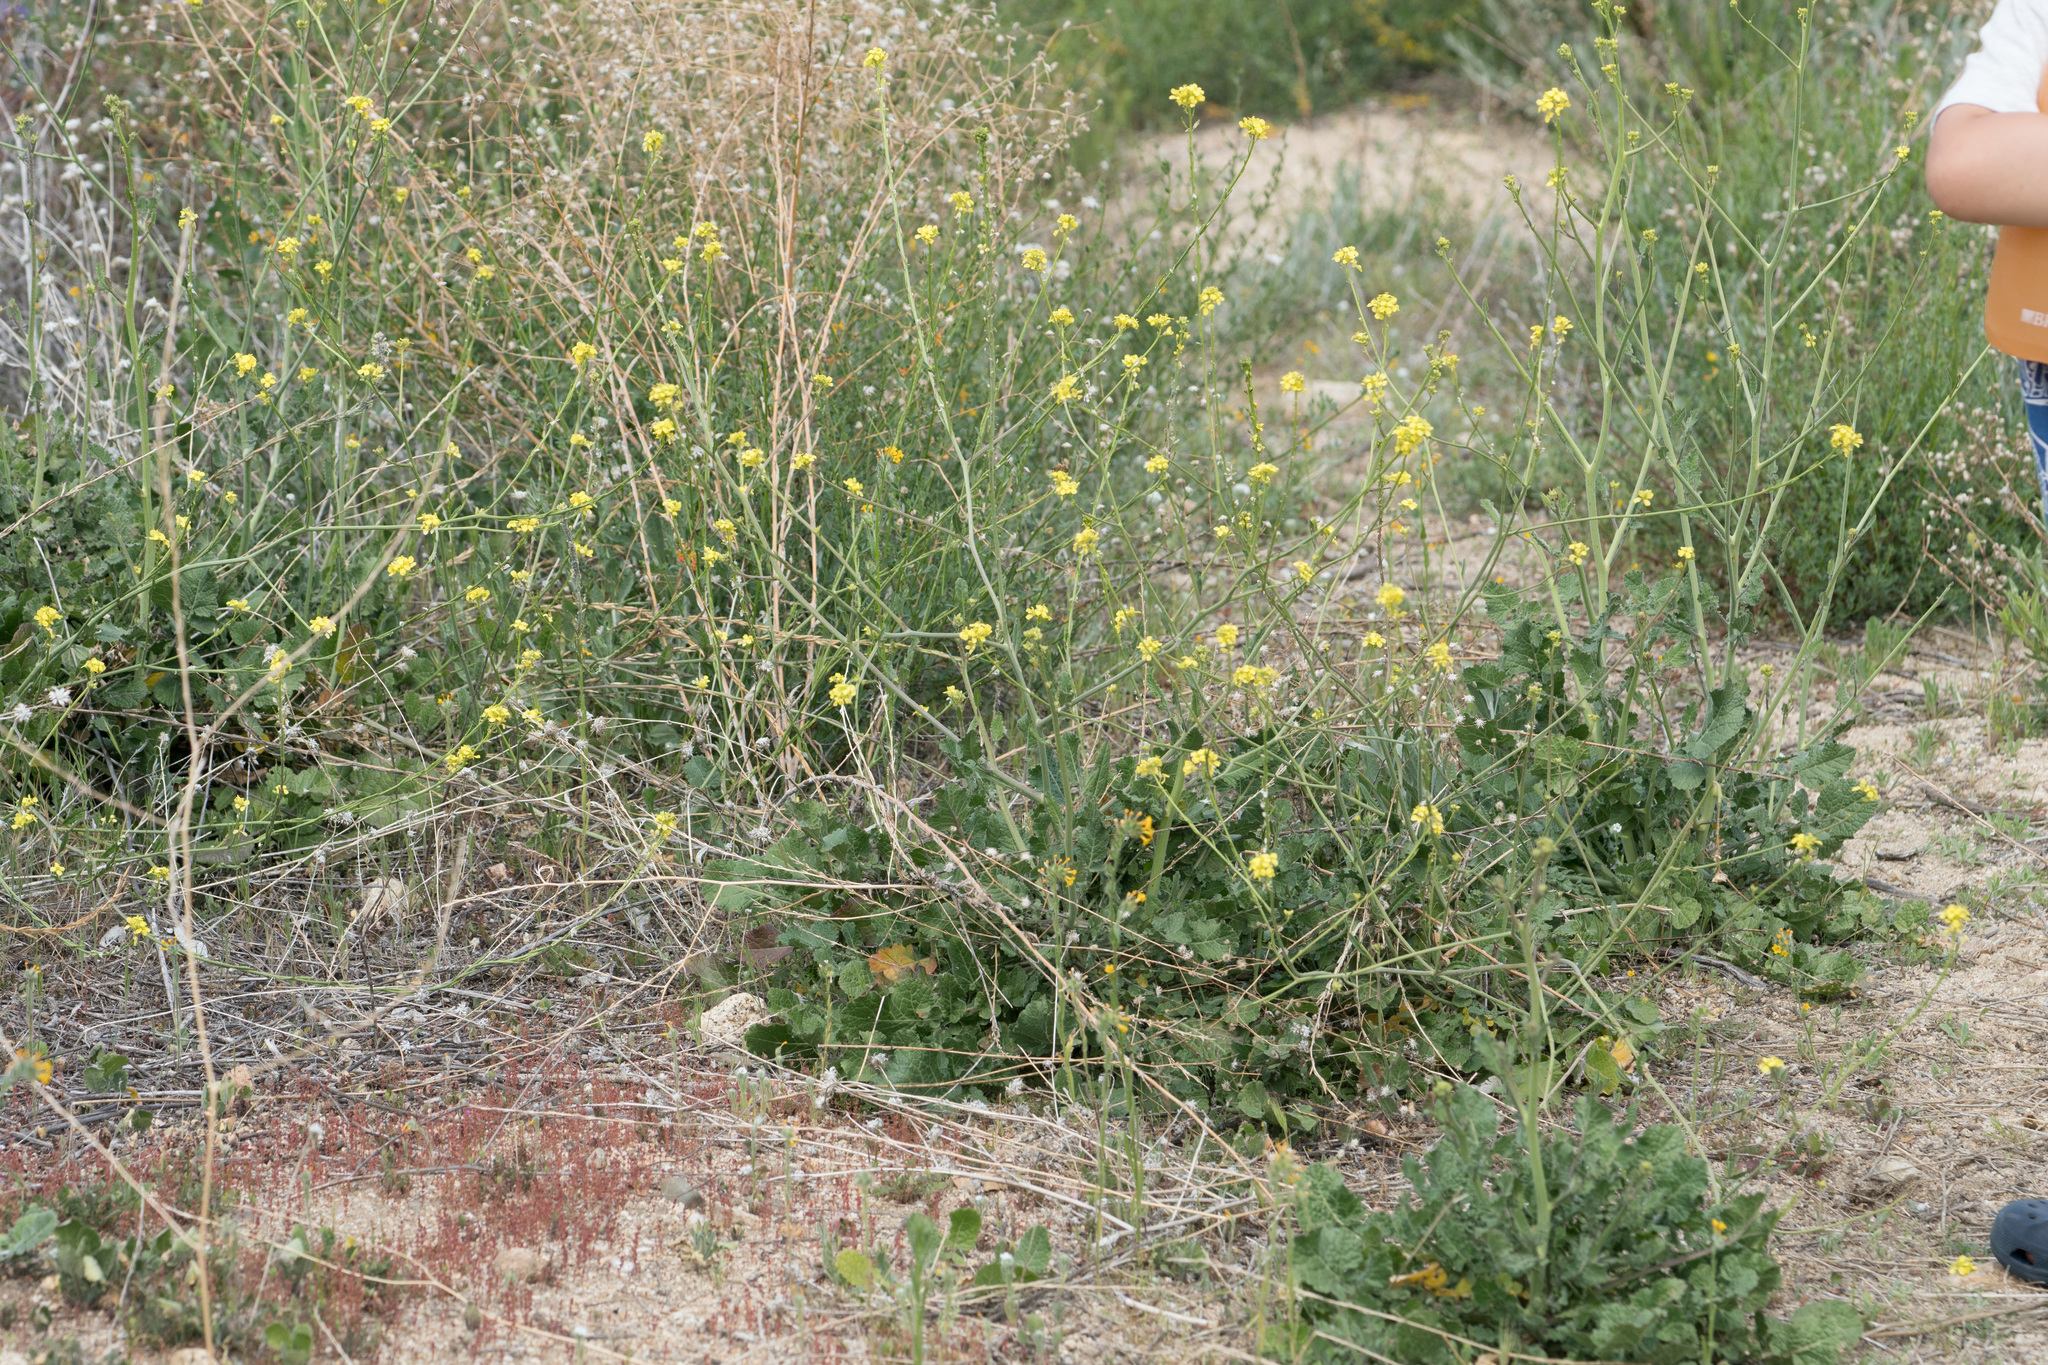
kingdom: Plantae
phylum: Tracheophyta
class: Magnoliopsida
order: Brassicales
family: Brassicaceae
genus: Hirschfeldia
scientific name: Hirschfeldia incana
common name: Hoary mustard
